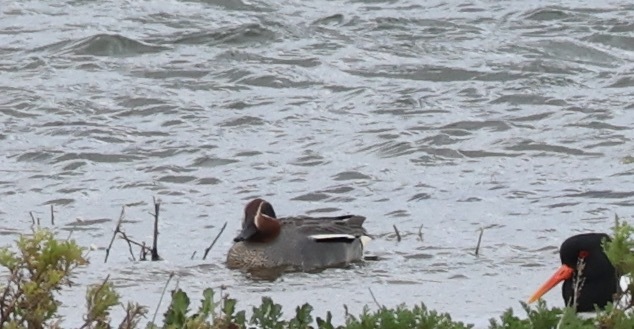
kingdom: Animalia
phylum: Chordata
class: Aves
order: Anseriformes
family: Anatidae
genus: Anas
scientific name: Anas crecca
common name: Eurasian teal
